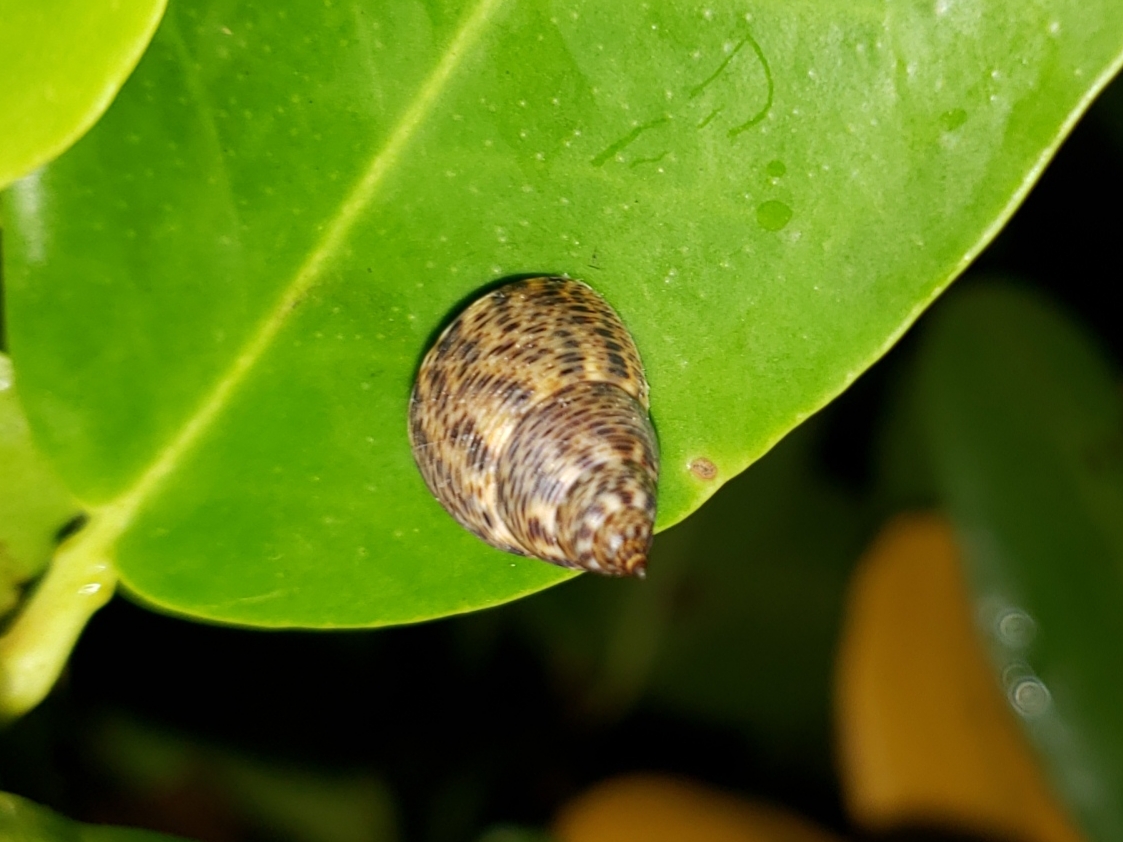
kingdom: Animalia
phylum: Mollusca
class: Gastropoda
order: Littorinimorpha
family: Littorinidae
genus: Littoraria
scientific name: Littoraria angulifera
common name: Mangrove periwinkle
